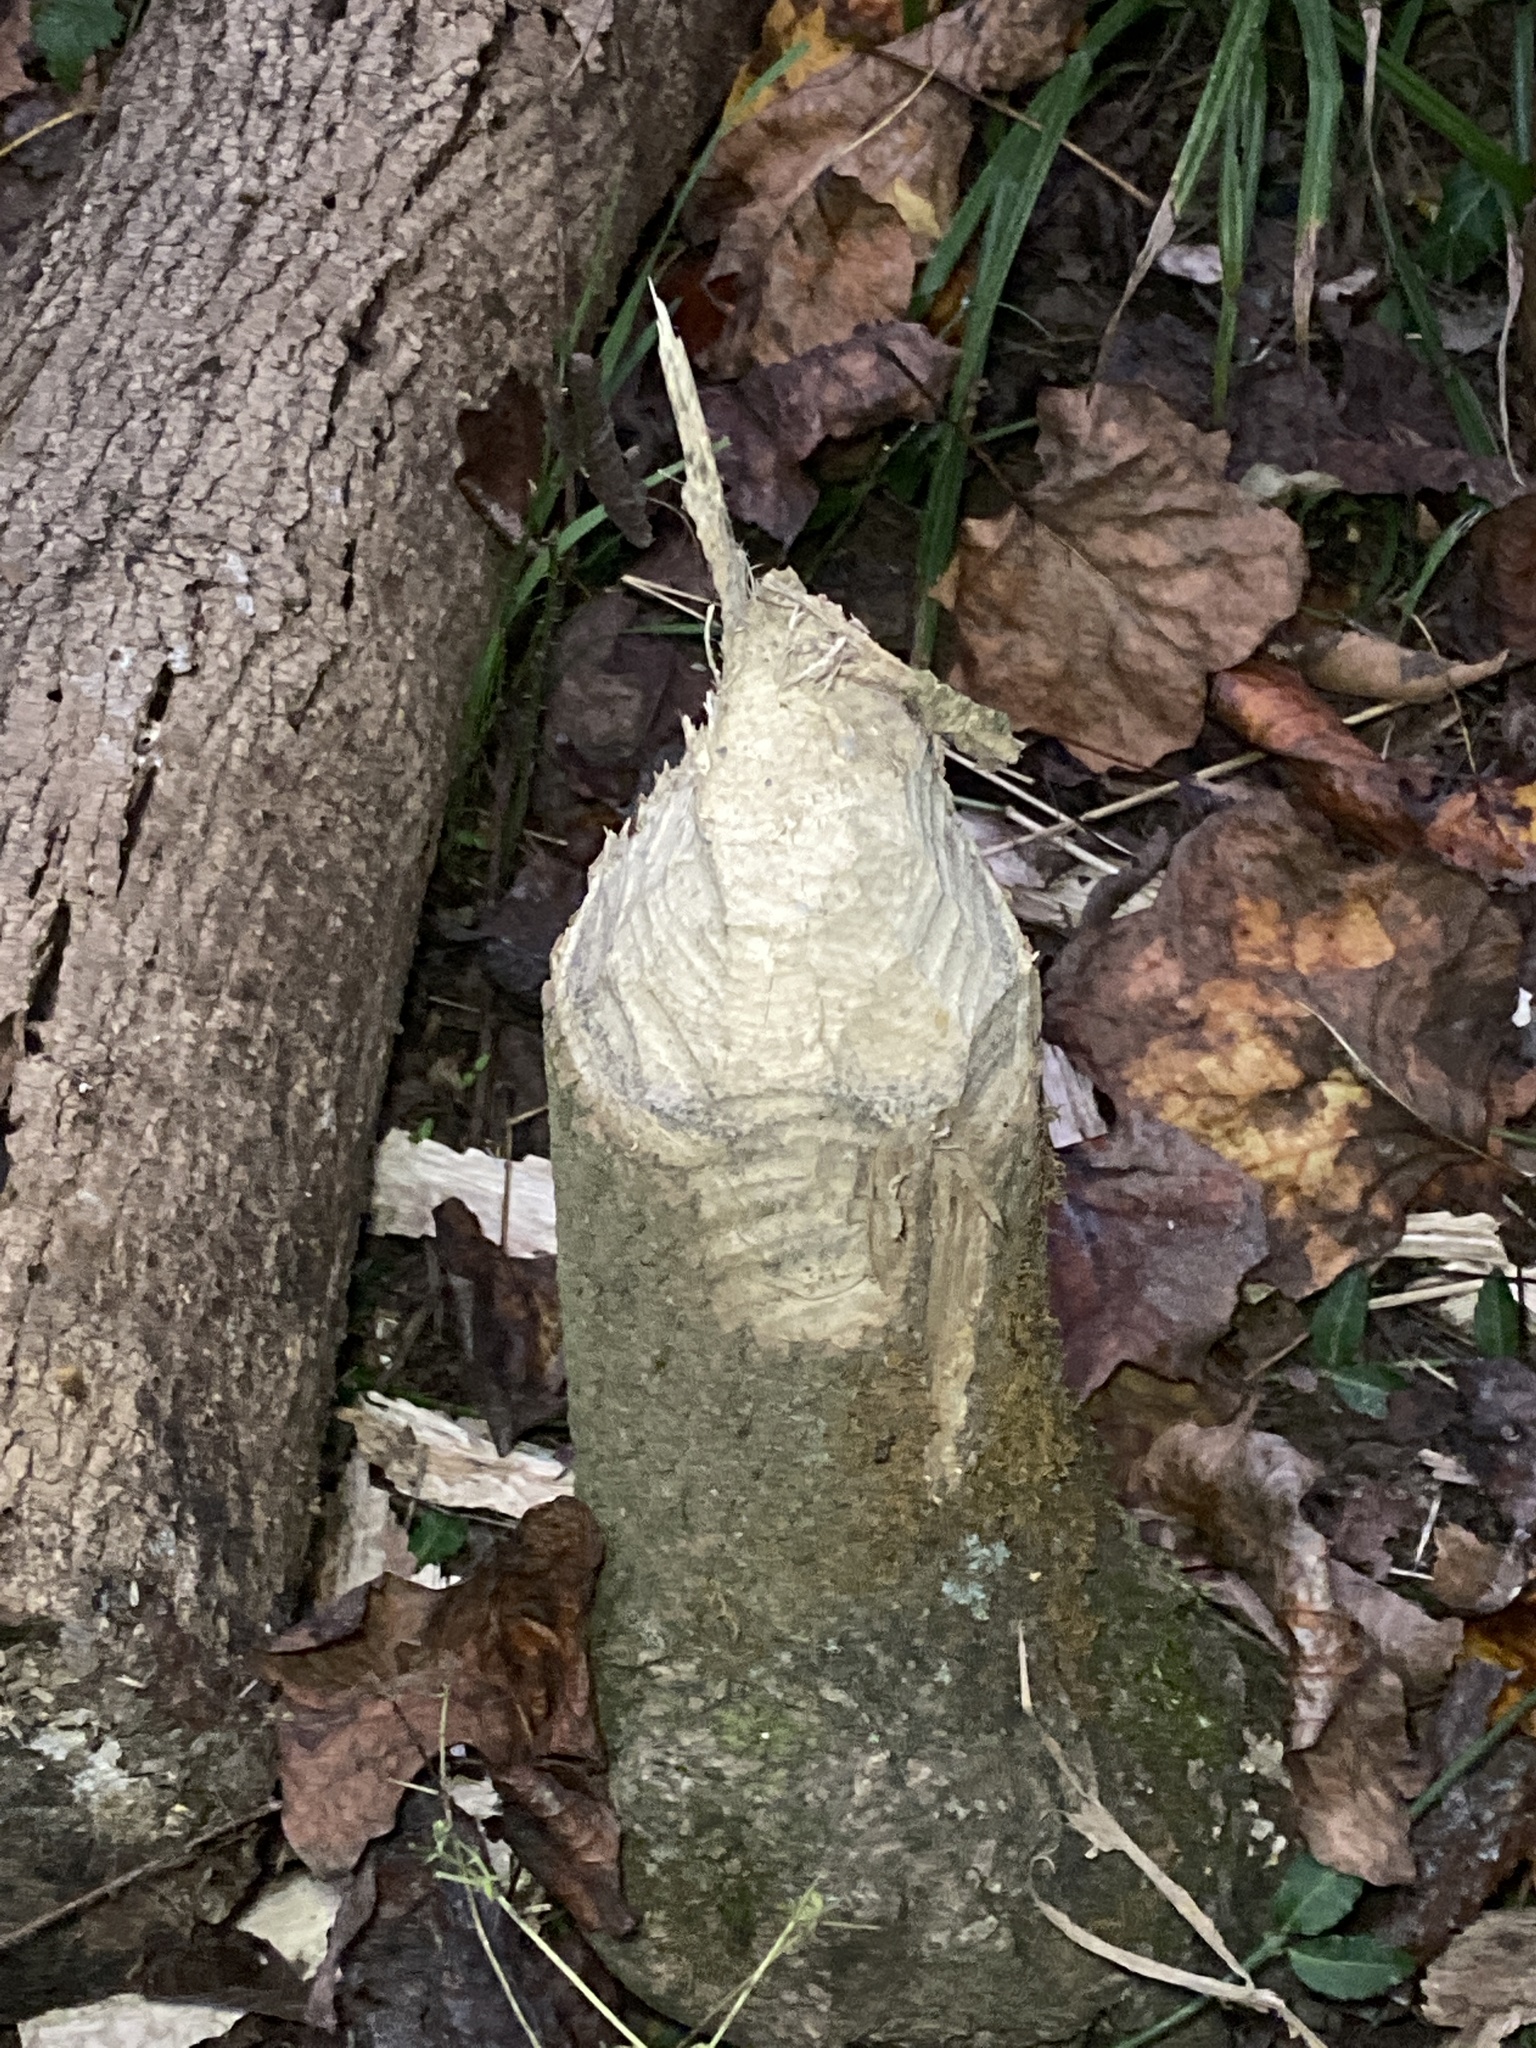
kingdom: Animalia
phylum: Chordata
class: Mammalia
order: Rodentia
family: Castoridae
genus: Castor
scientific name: Castor canadensis
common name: American beaver
